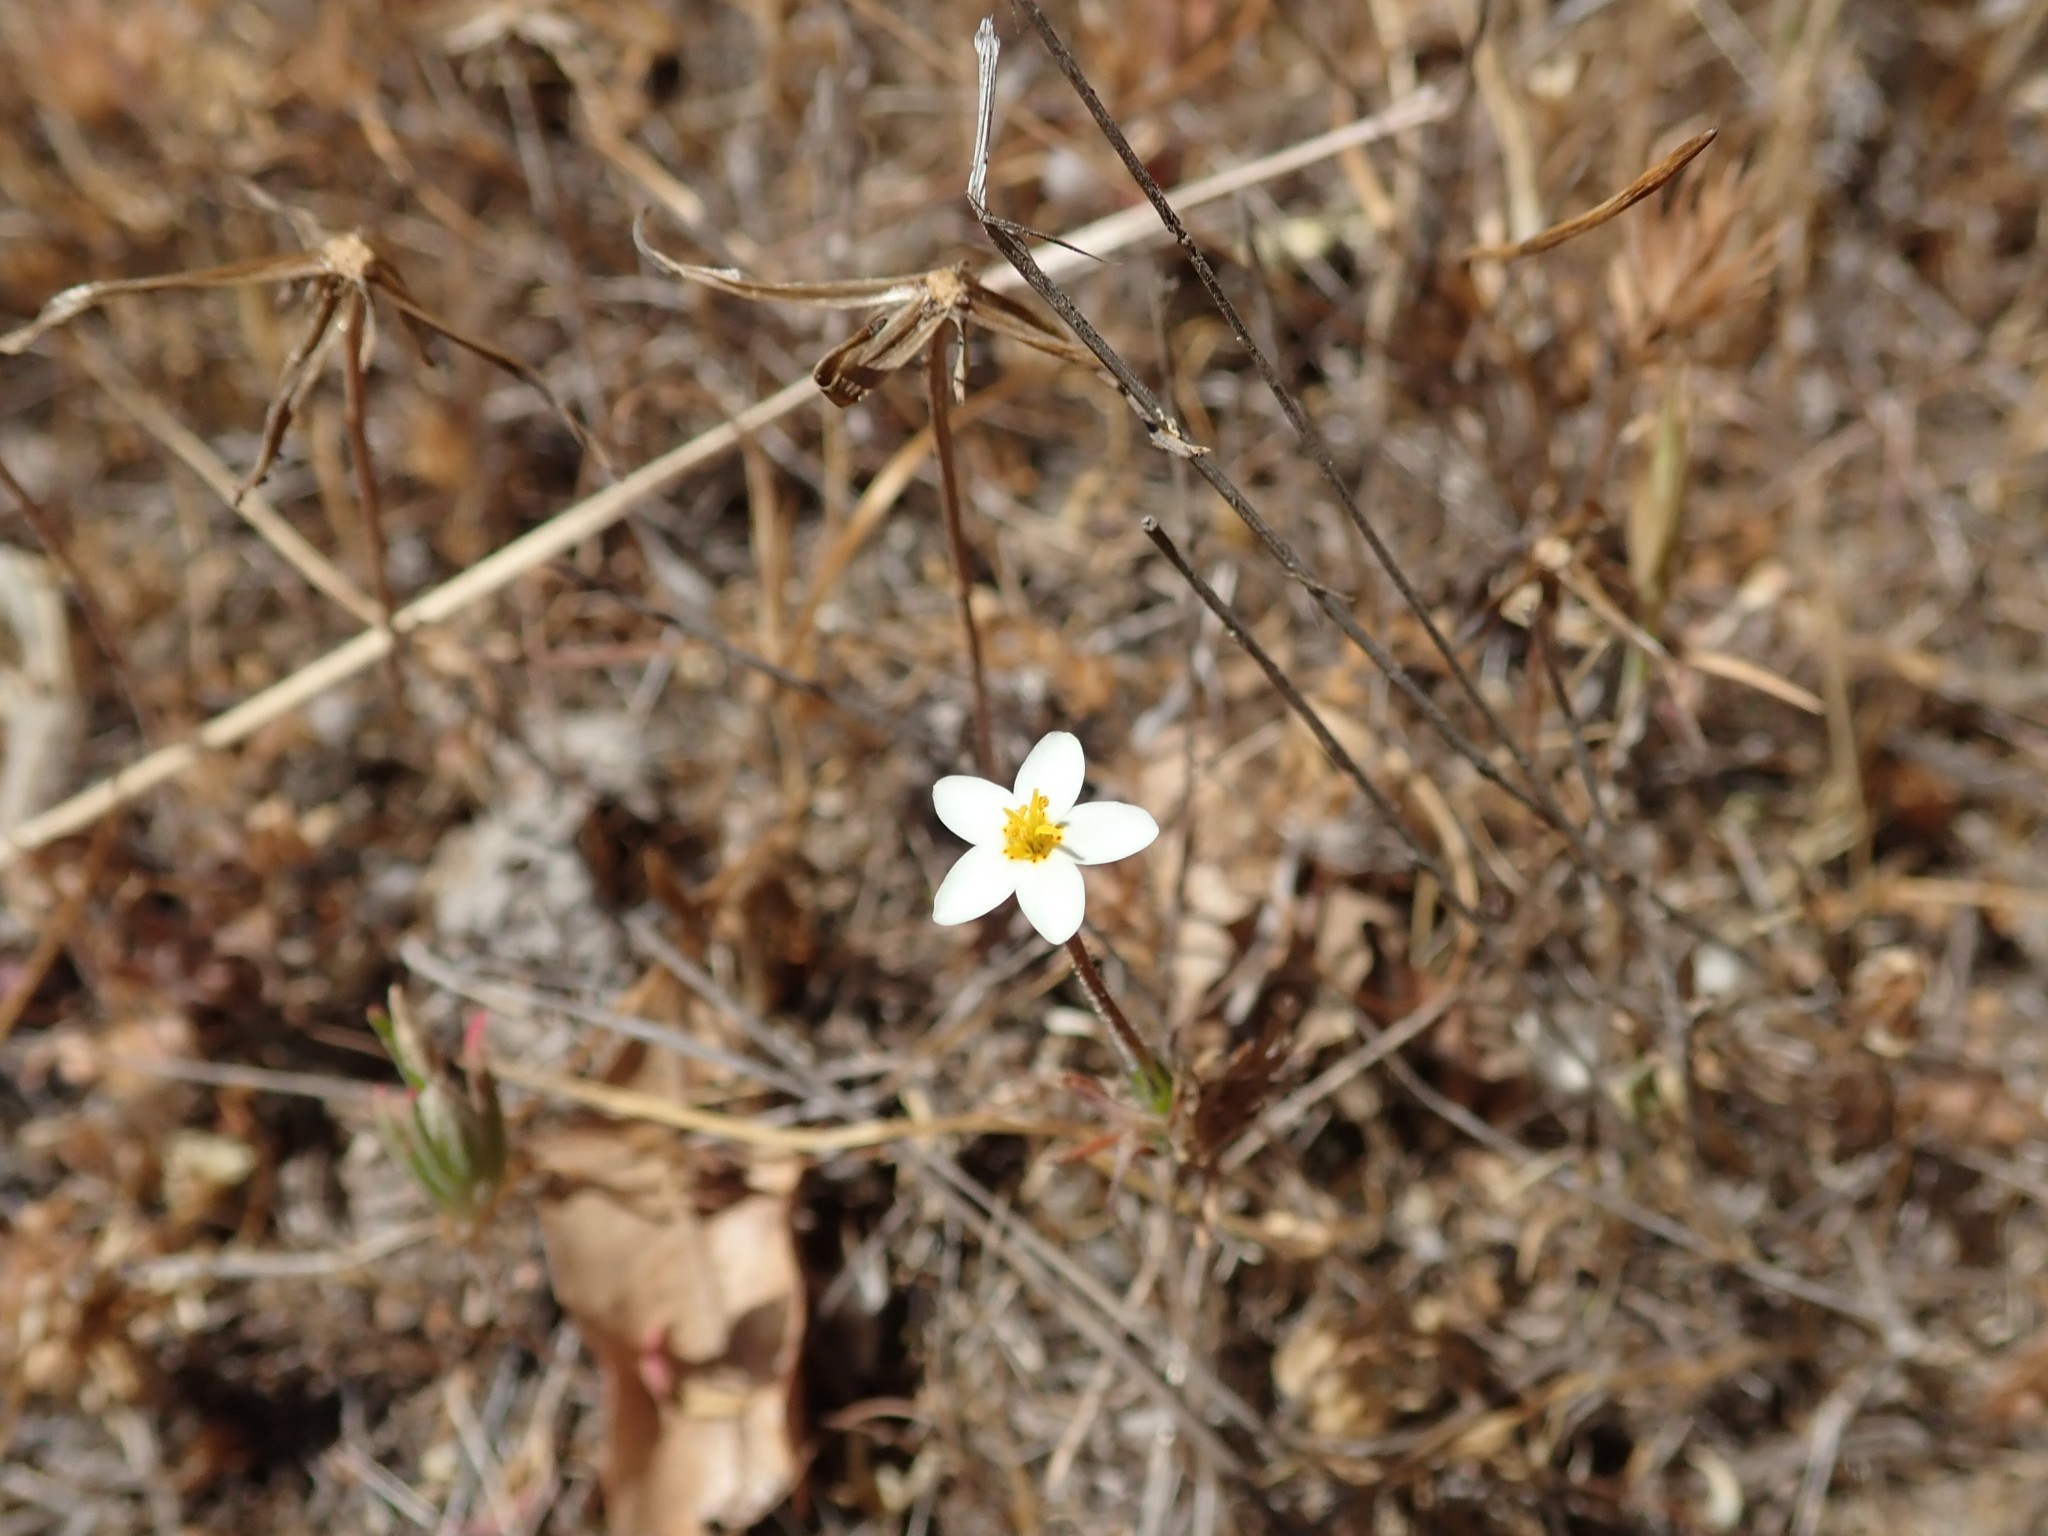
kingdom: Plantae
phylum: Tracheophyta
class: Magnoliopsida
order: Ericales
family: Polemoniaceae
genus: Leptosiphon
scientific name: Leptosiphon parviflorus
